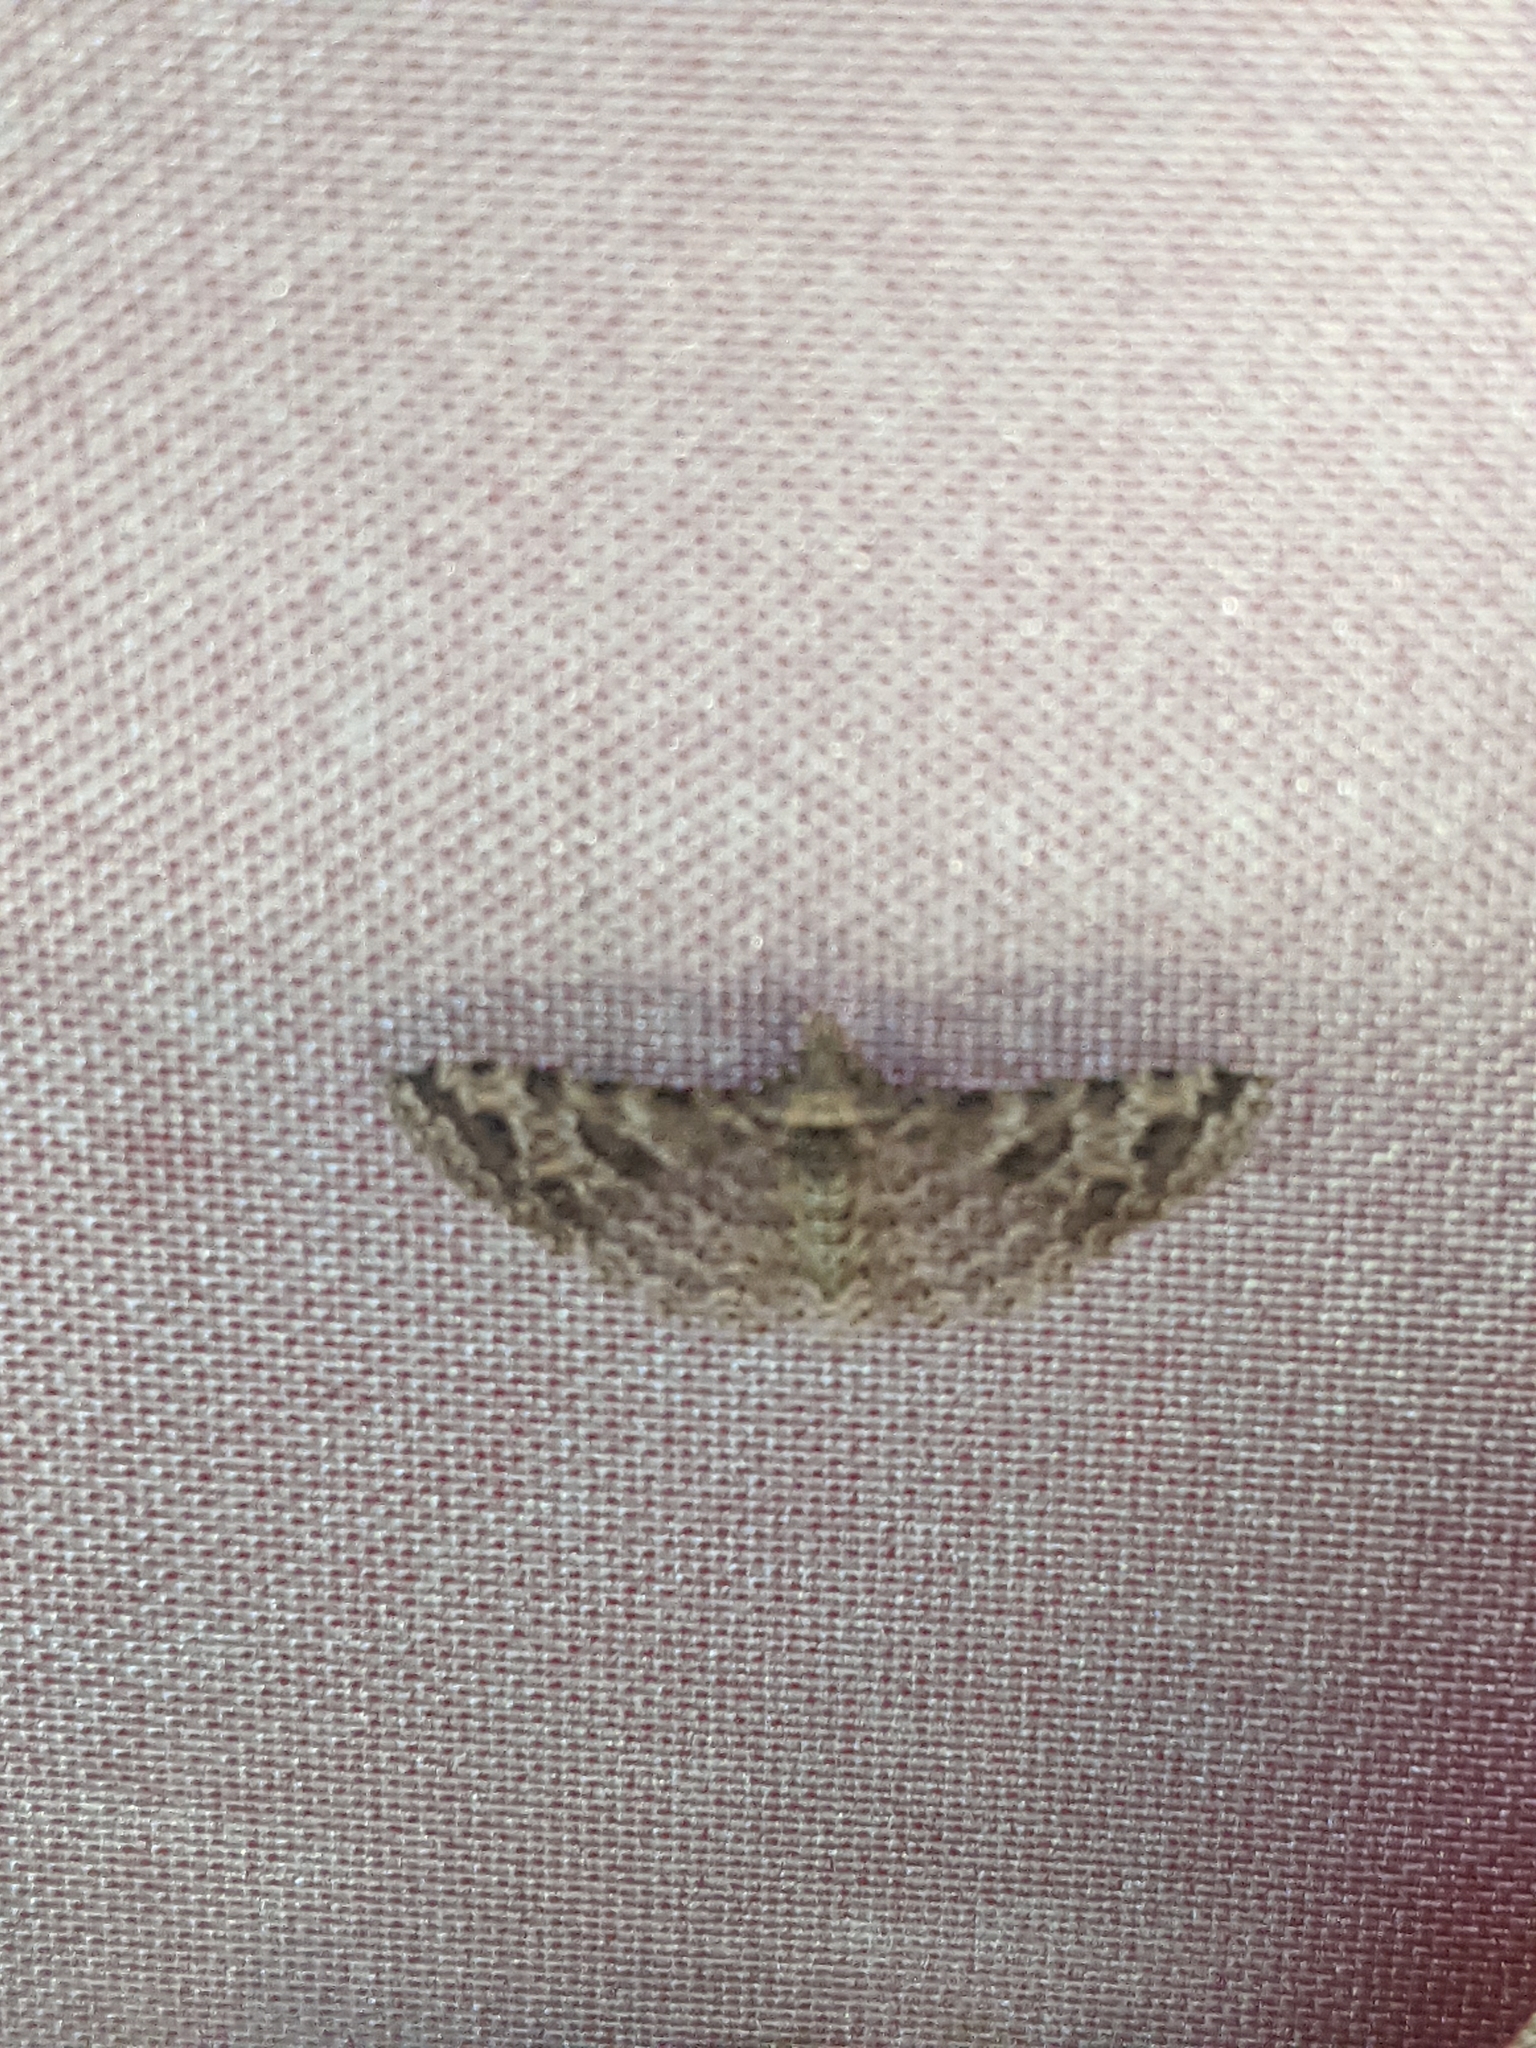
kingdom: Animalia
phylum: Arthropoda
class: Insecta
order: Lepidoptera
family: Alucitidae
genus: Alucita
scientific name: Alucita montana
